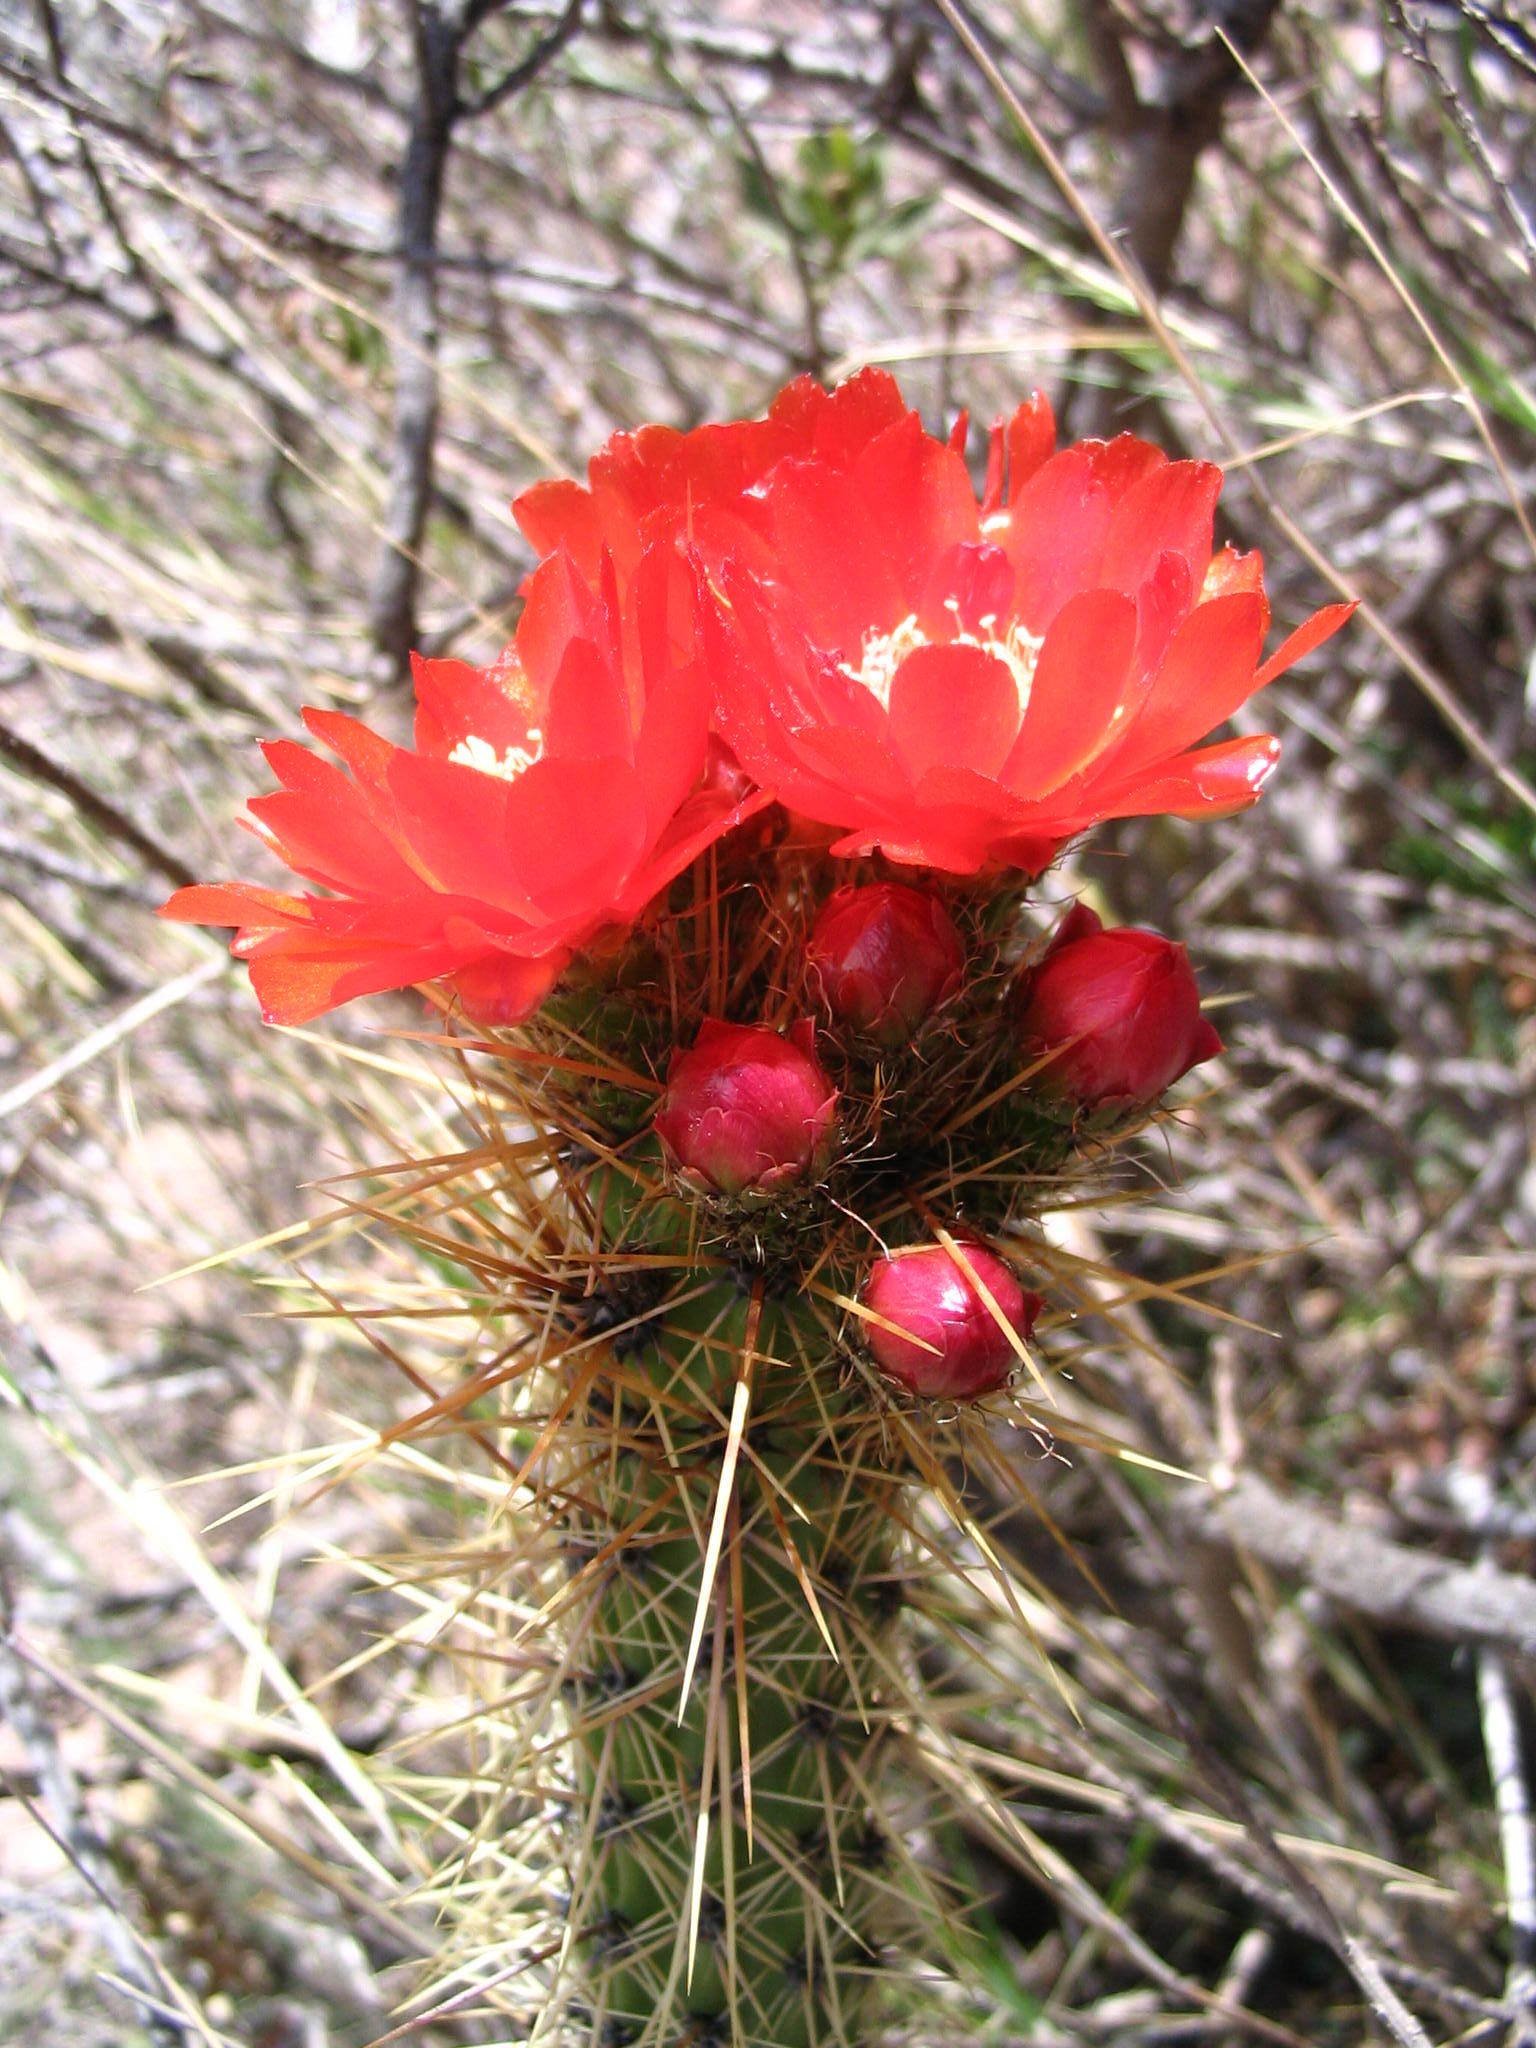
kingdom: Plantae
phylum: Tracheophyta
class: Magnoliopsida
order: Caryophyllales
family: Cactaceae
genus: Corryocactus
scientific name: Corryocactus erectus
